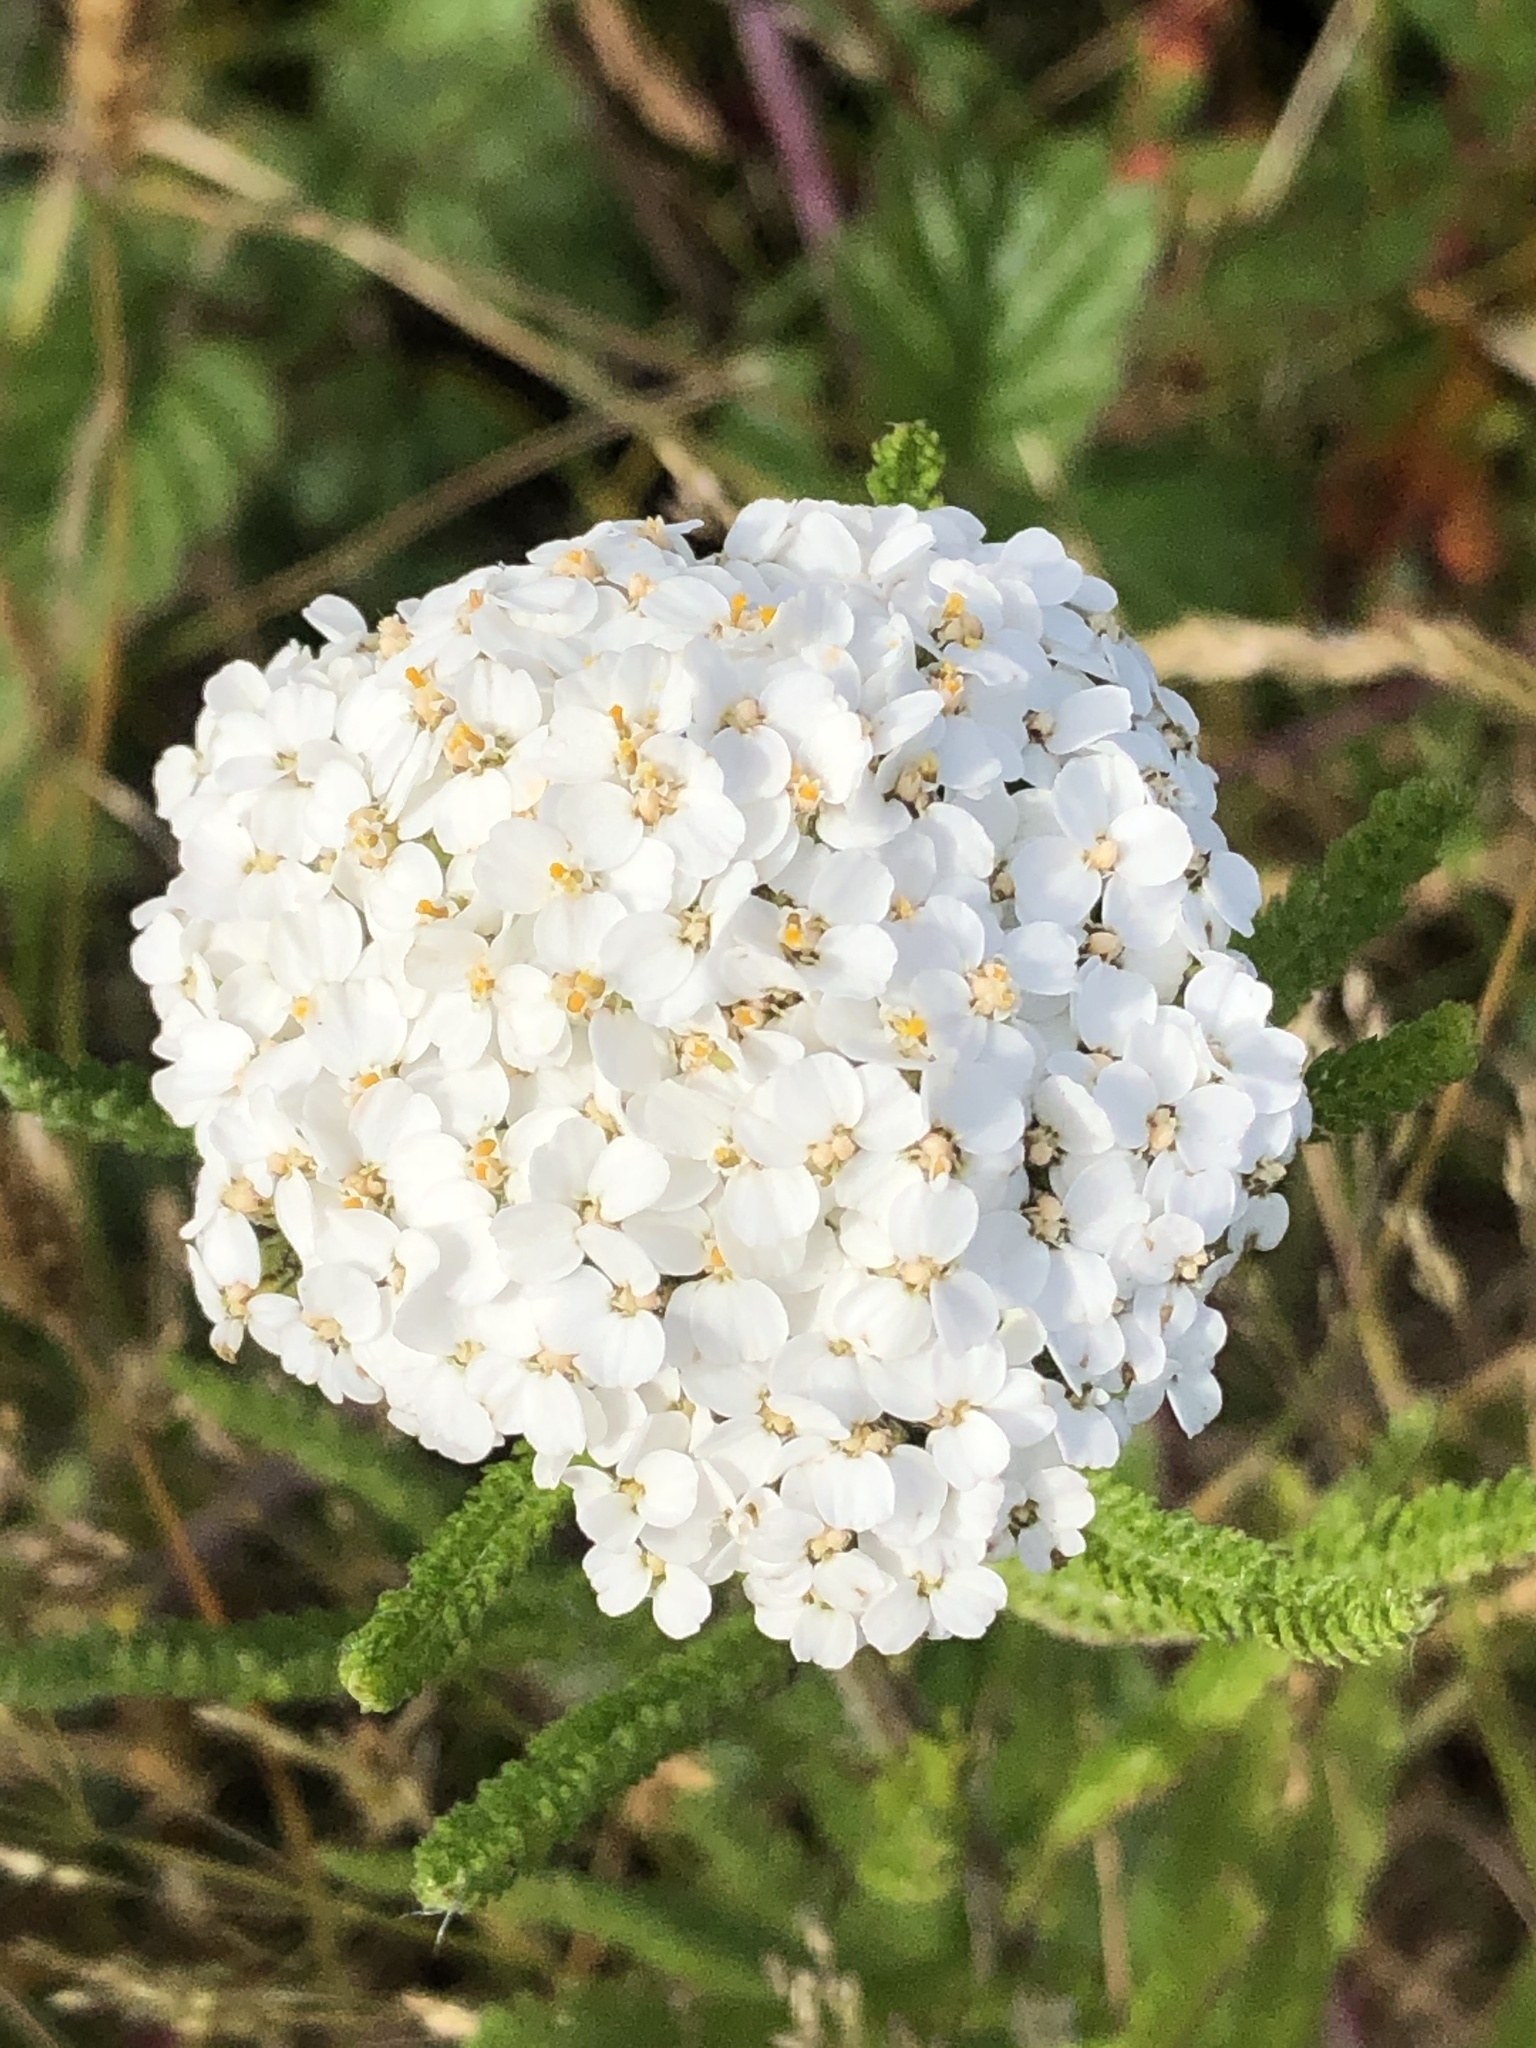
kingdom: Plantae
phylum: Tracheophyta
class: Magnoliopsida
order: Asterales
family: Asteraceae
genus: Achillea
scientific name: Achillea millefolium
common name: Yarrow
